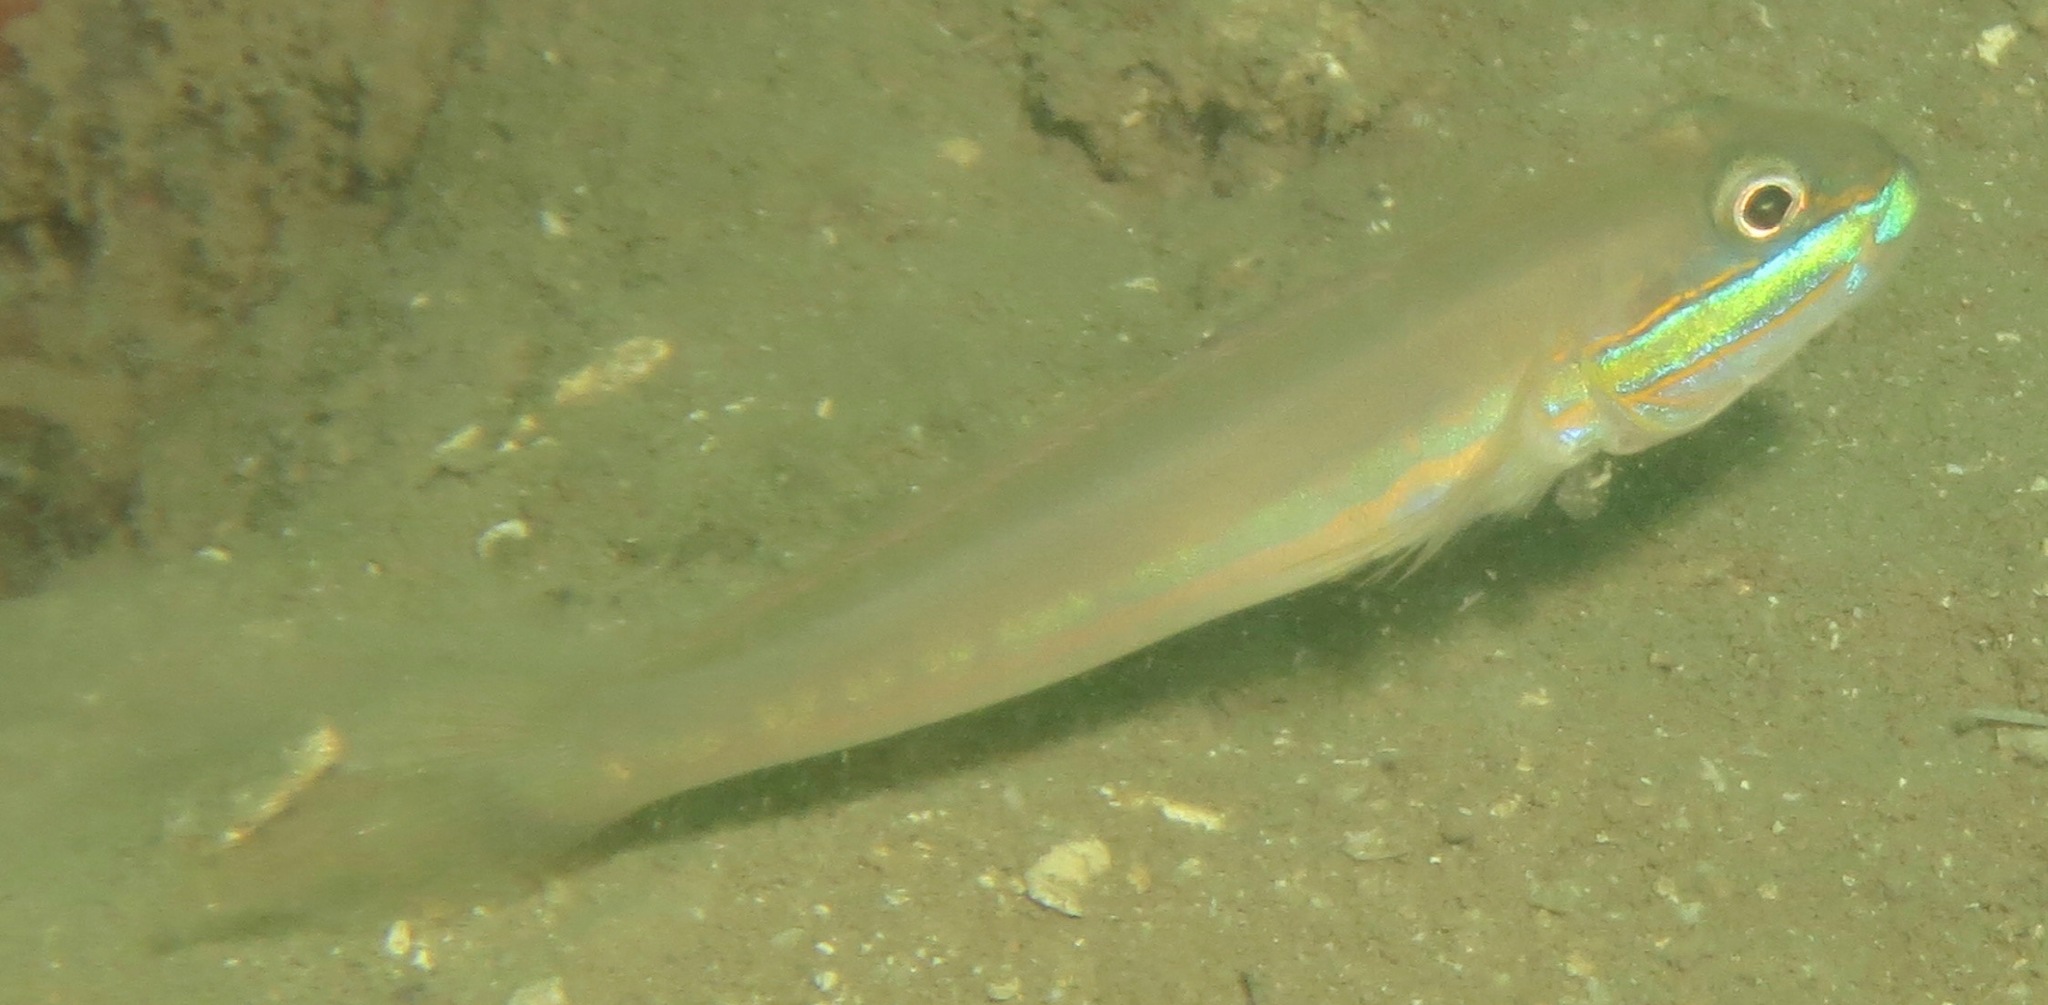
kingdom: Animalia
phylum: Chordata
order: Perciformes
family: Gobiidae
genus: Valenciennea
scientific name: Valenciennea randalli
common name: Greenband goby
